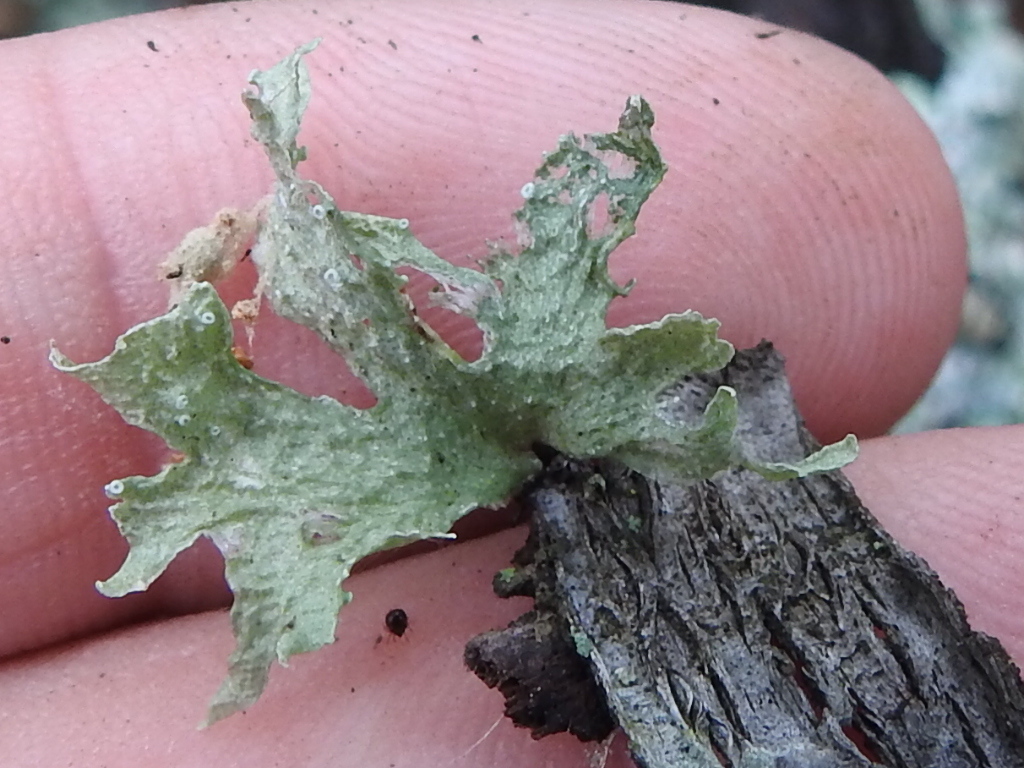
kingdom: Fungi
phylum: Ascomycota
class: Lecanoromycetes
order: Lecanorales
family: Ramalinaceae
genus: Ramalina
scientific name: Ramalina celastri
